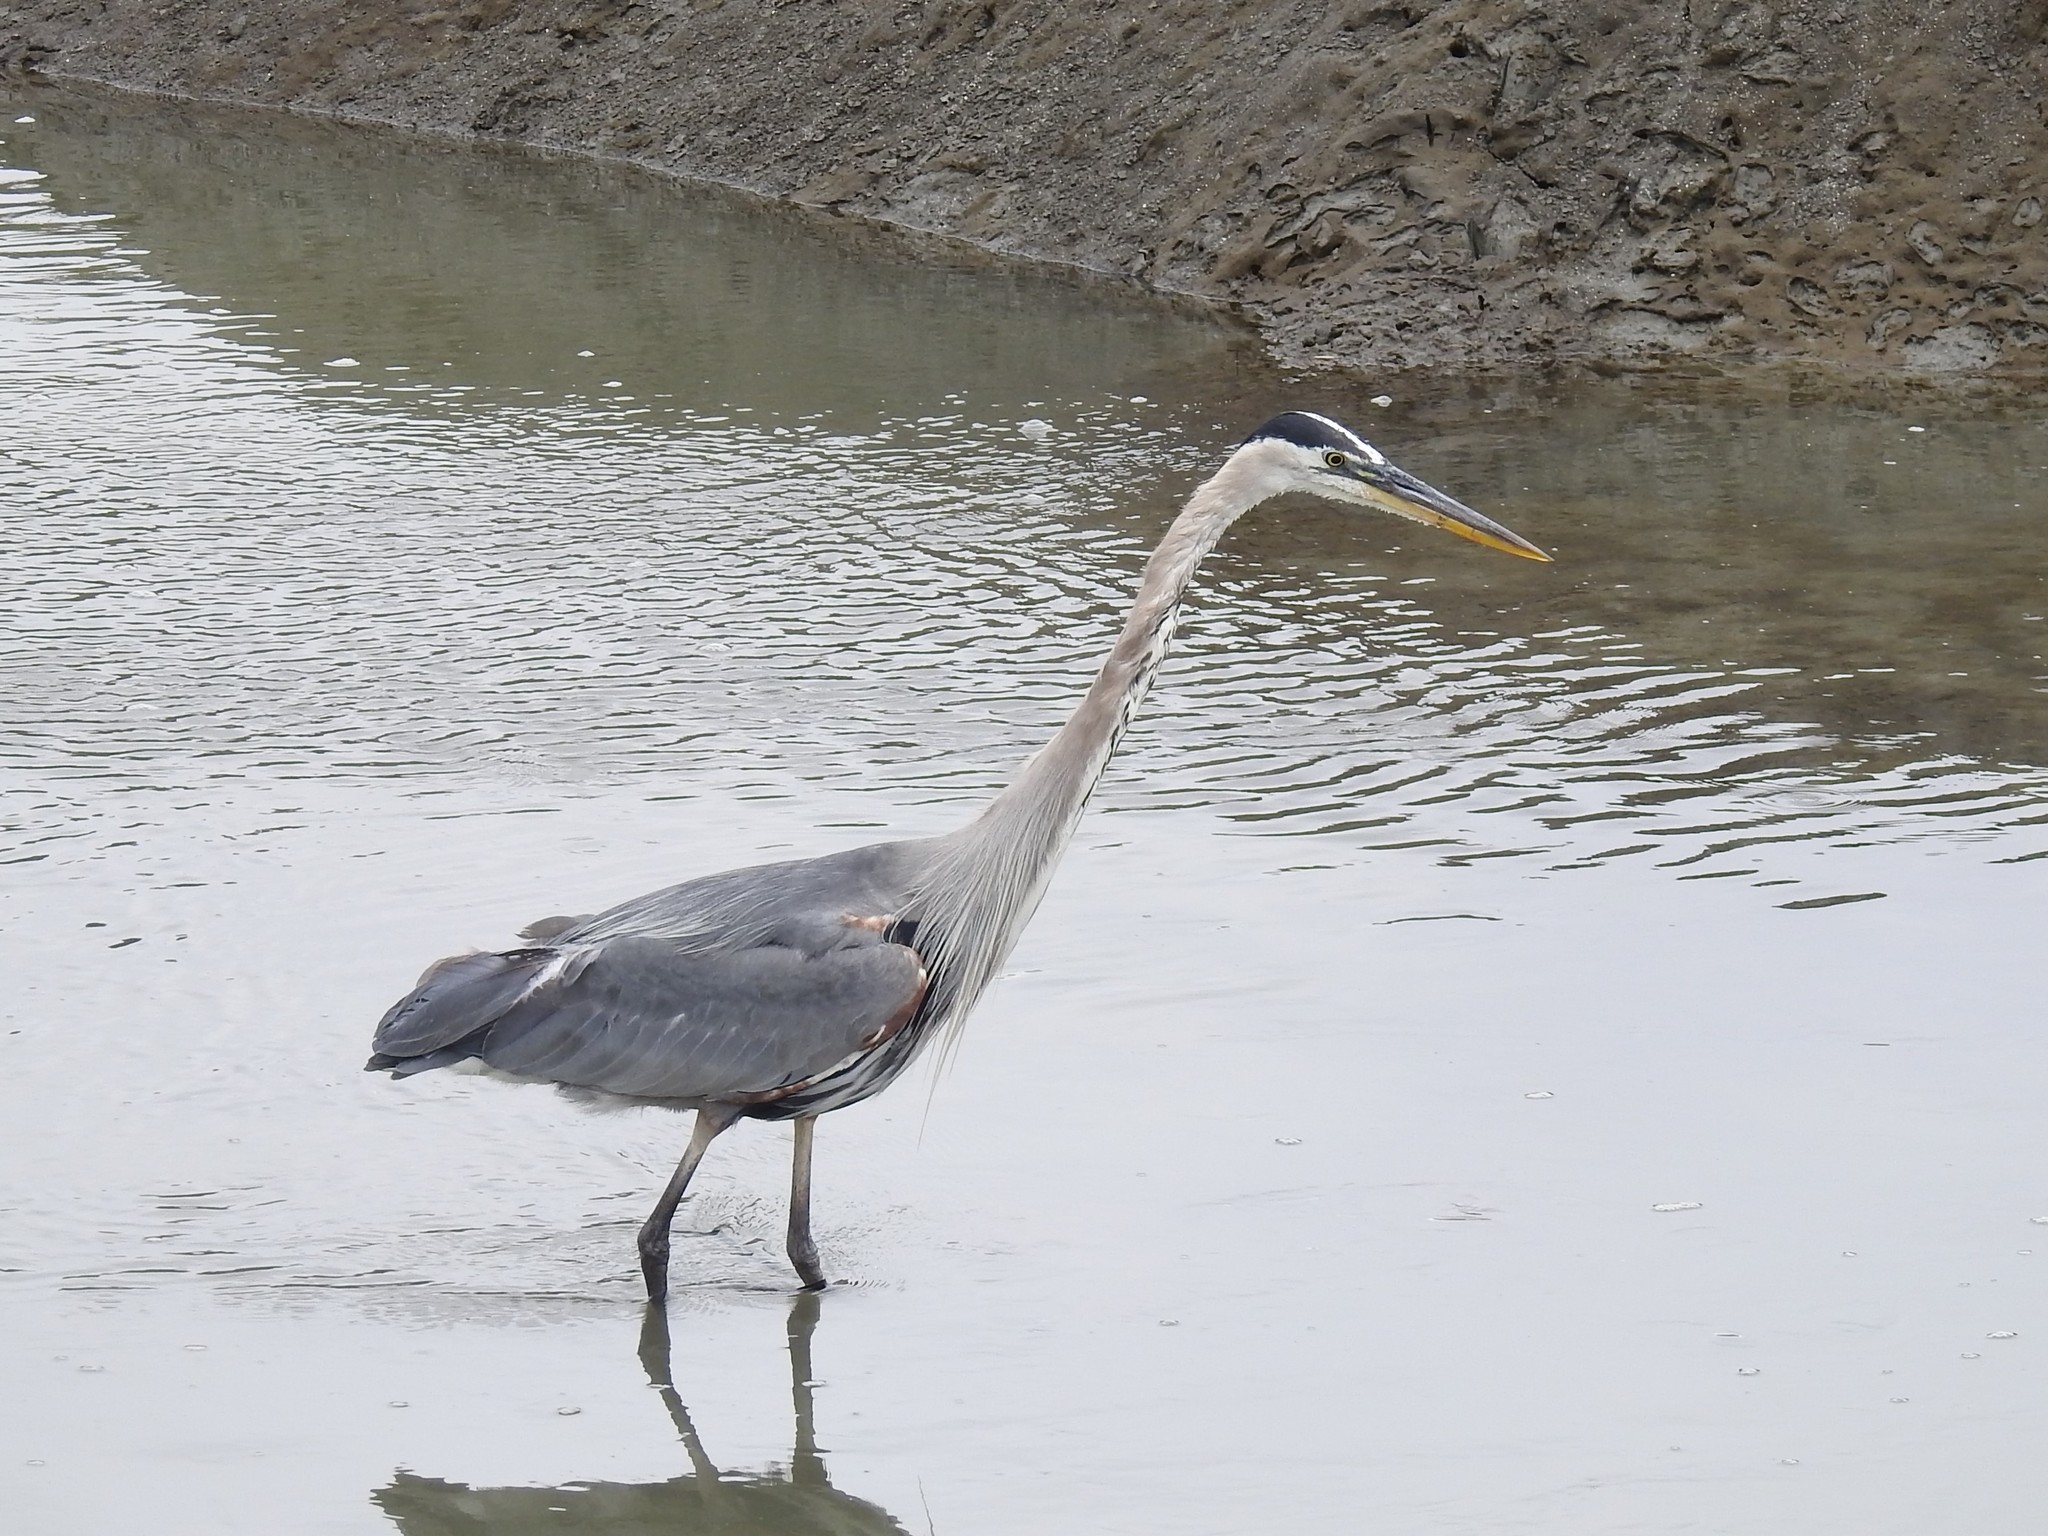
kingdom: Animalia
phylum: Chordata
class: Aves
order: Pelecaniformes
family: Ardeidae
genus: Ardea
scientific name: Ardea herodias
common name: Great blue heron
